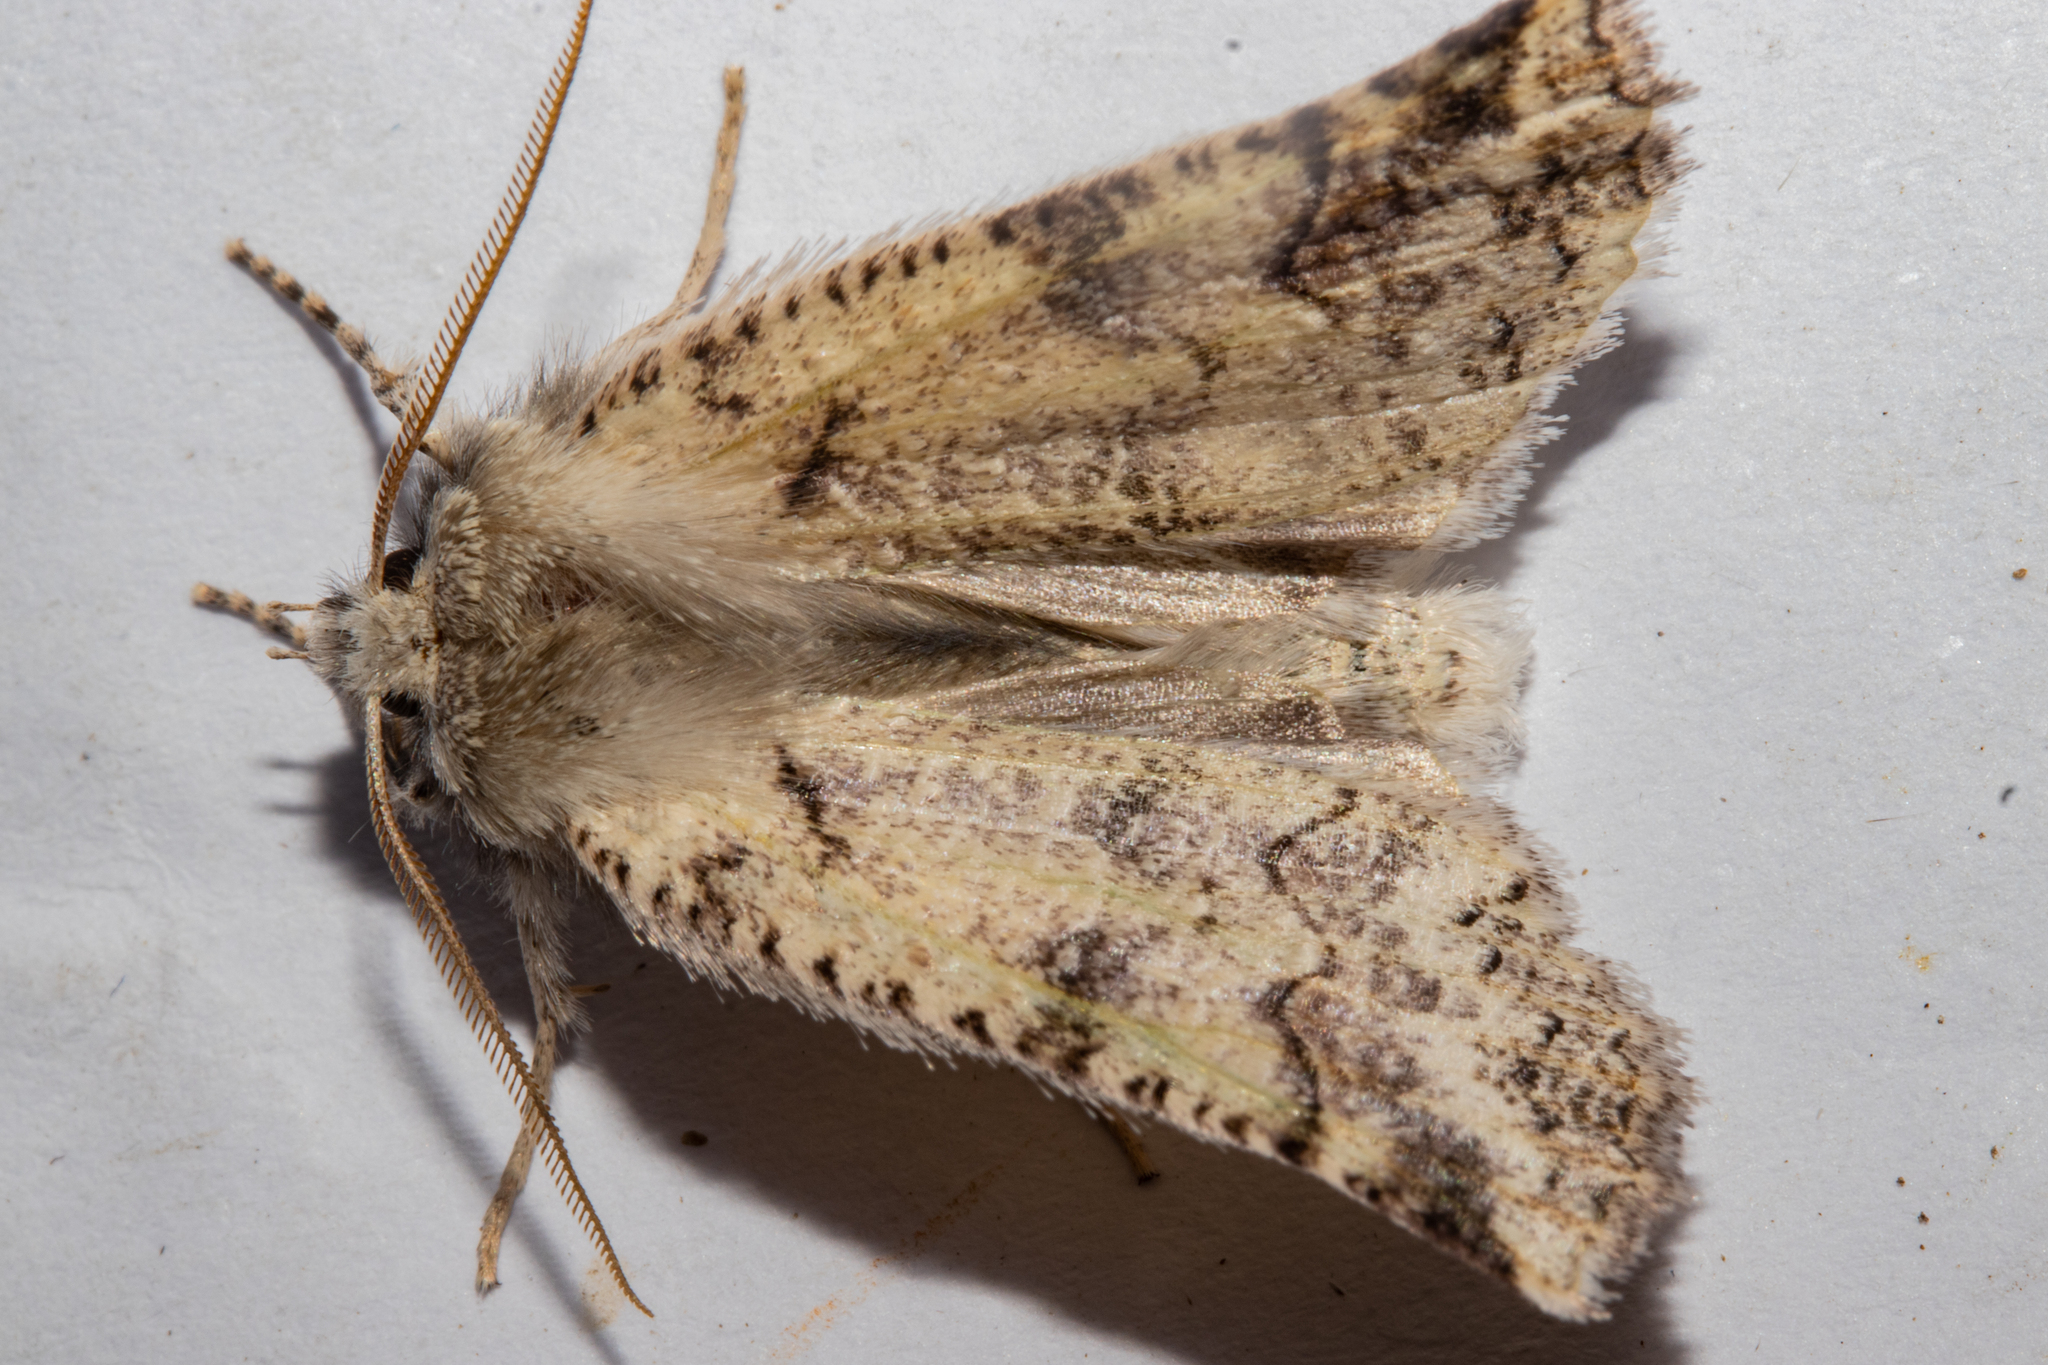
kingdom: Animalia
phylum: Arthropoda
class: Insecta
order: Lepidoptera
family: Geometridae
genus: Declana
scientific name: Declana floccosa
